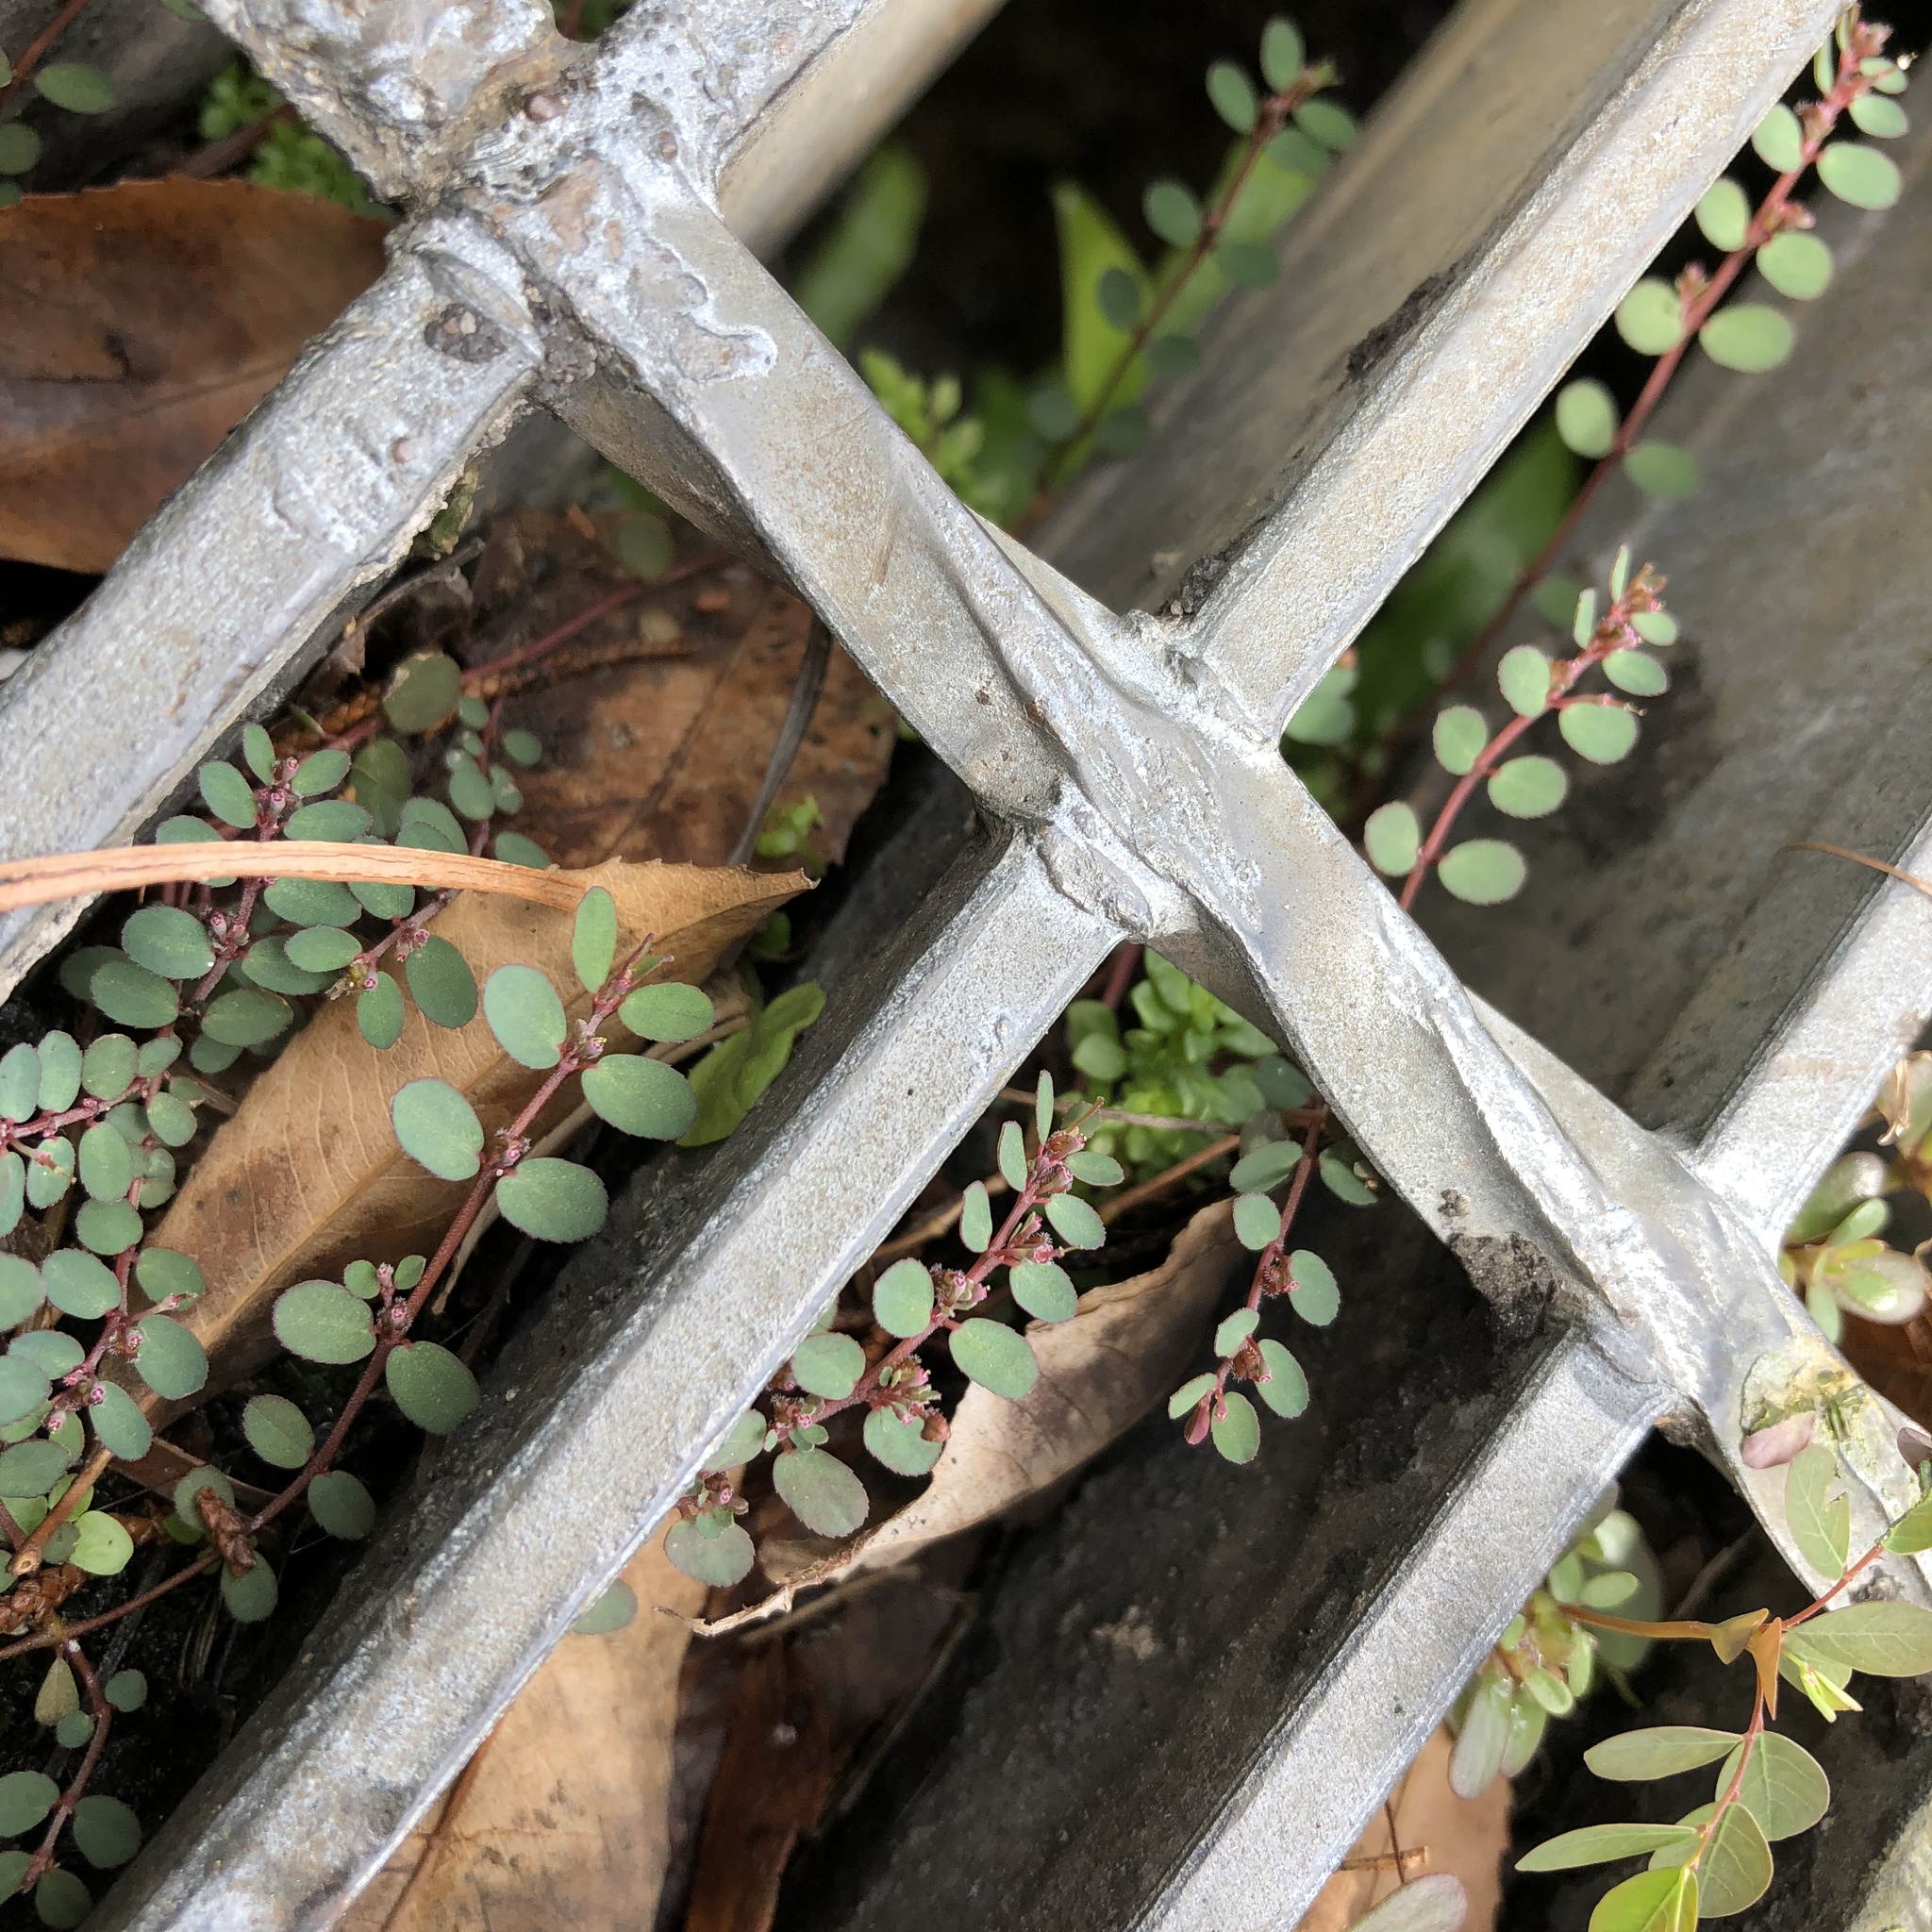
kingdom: Plantae
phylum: Tracheophyta
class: Magnoliopsida
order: Malpighiales
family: Euphorbiaceae
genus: Euphorbia
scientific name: Euphorbia prostrata
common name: Prostrate sandmat
